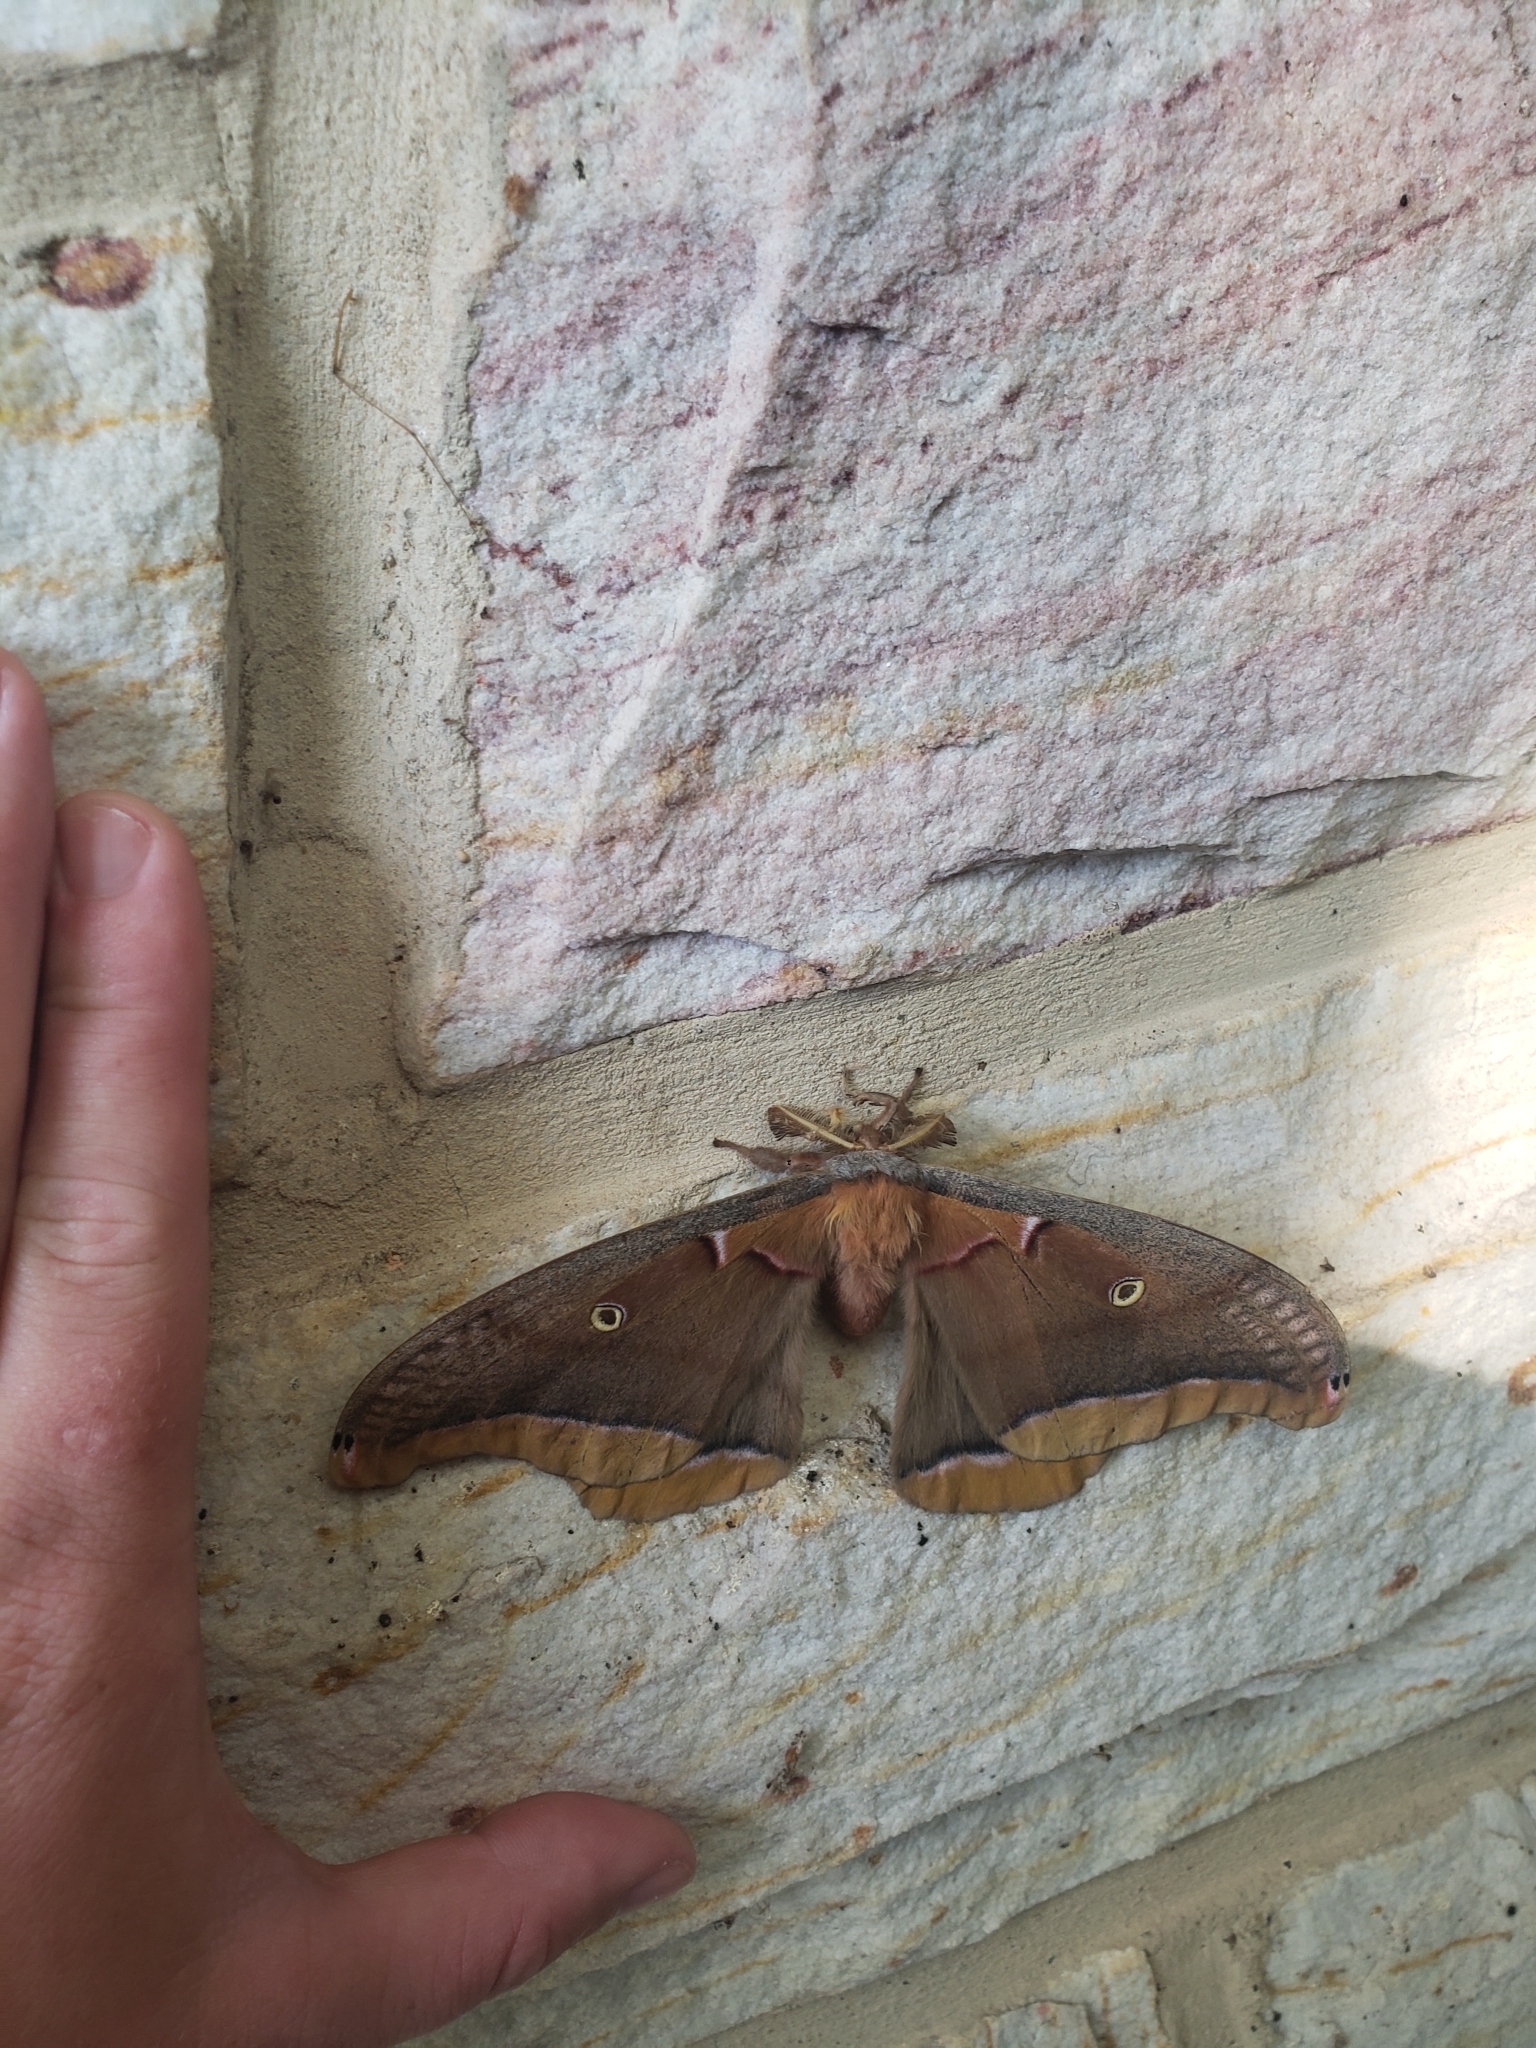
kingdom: Animalia
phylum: Arthropoda
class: Insecta
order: Lepidoptera
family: Saturniidae
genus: Antheraea
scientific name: Antheraea polyphemus
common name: Polyphemus moth
